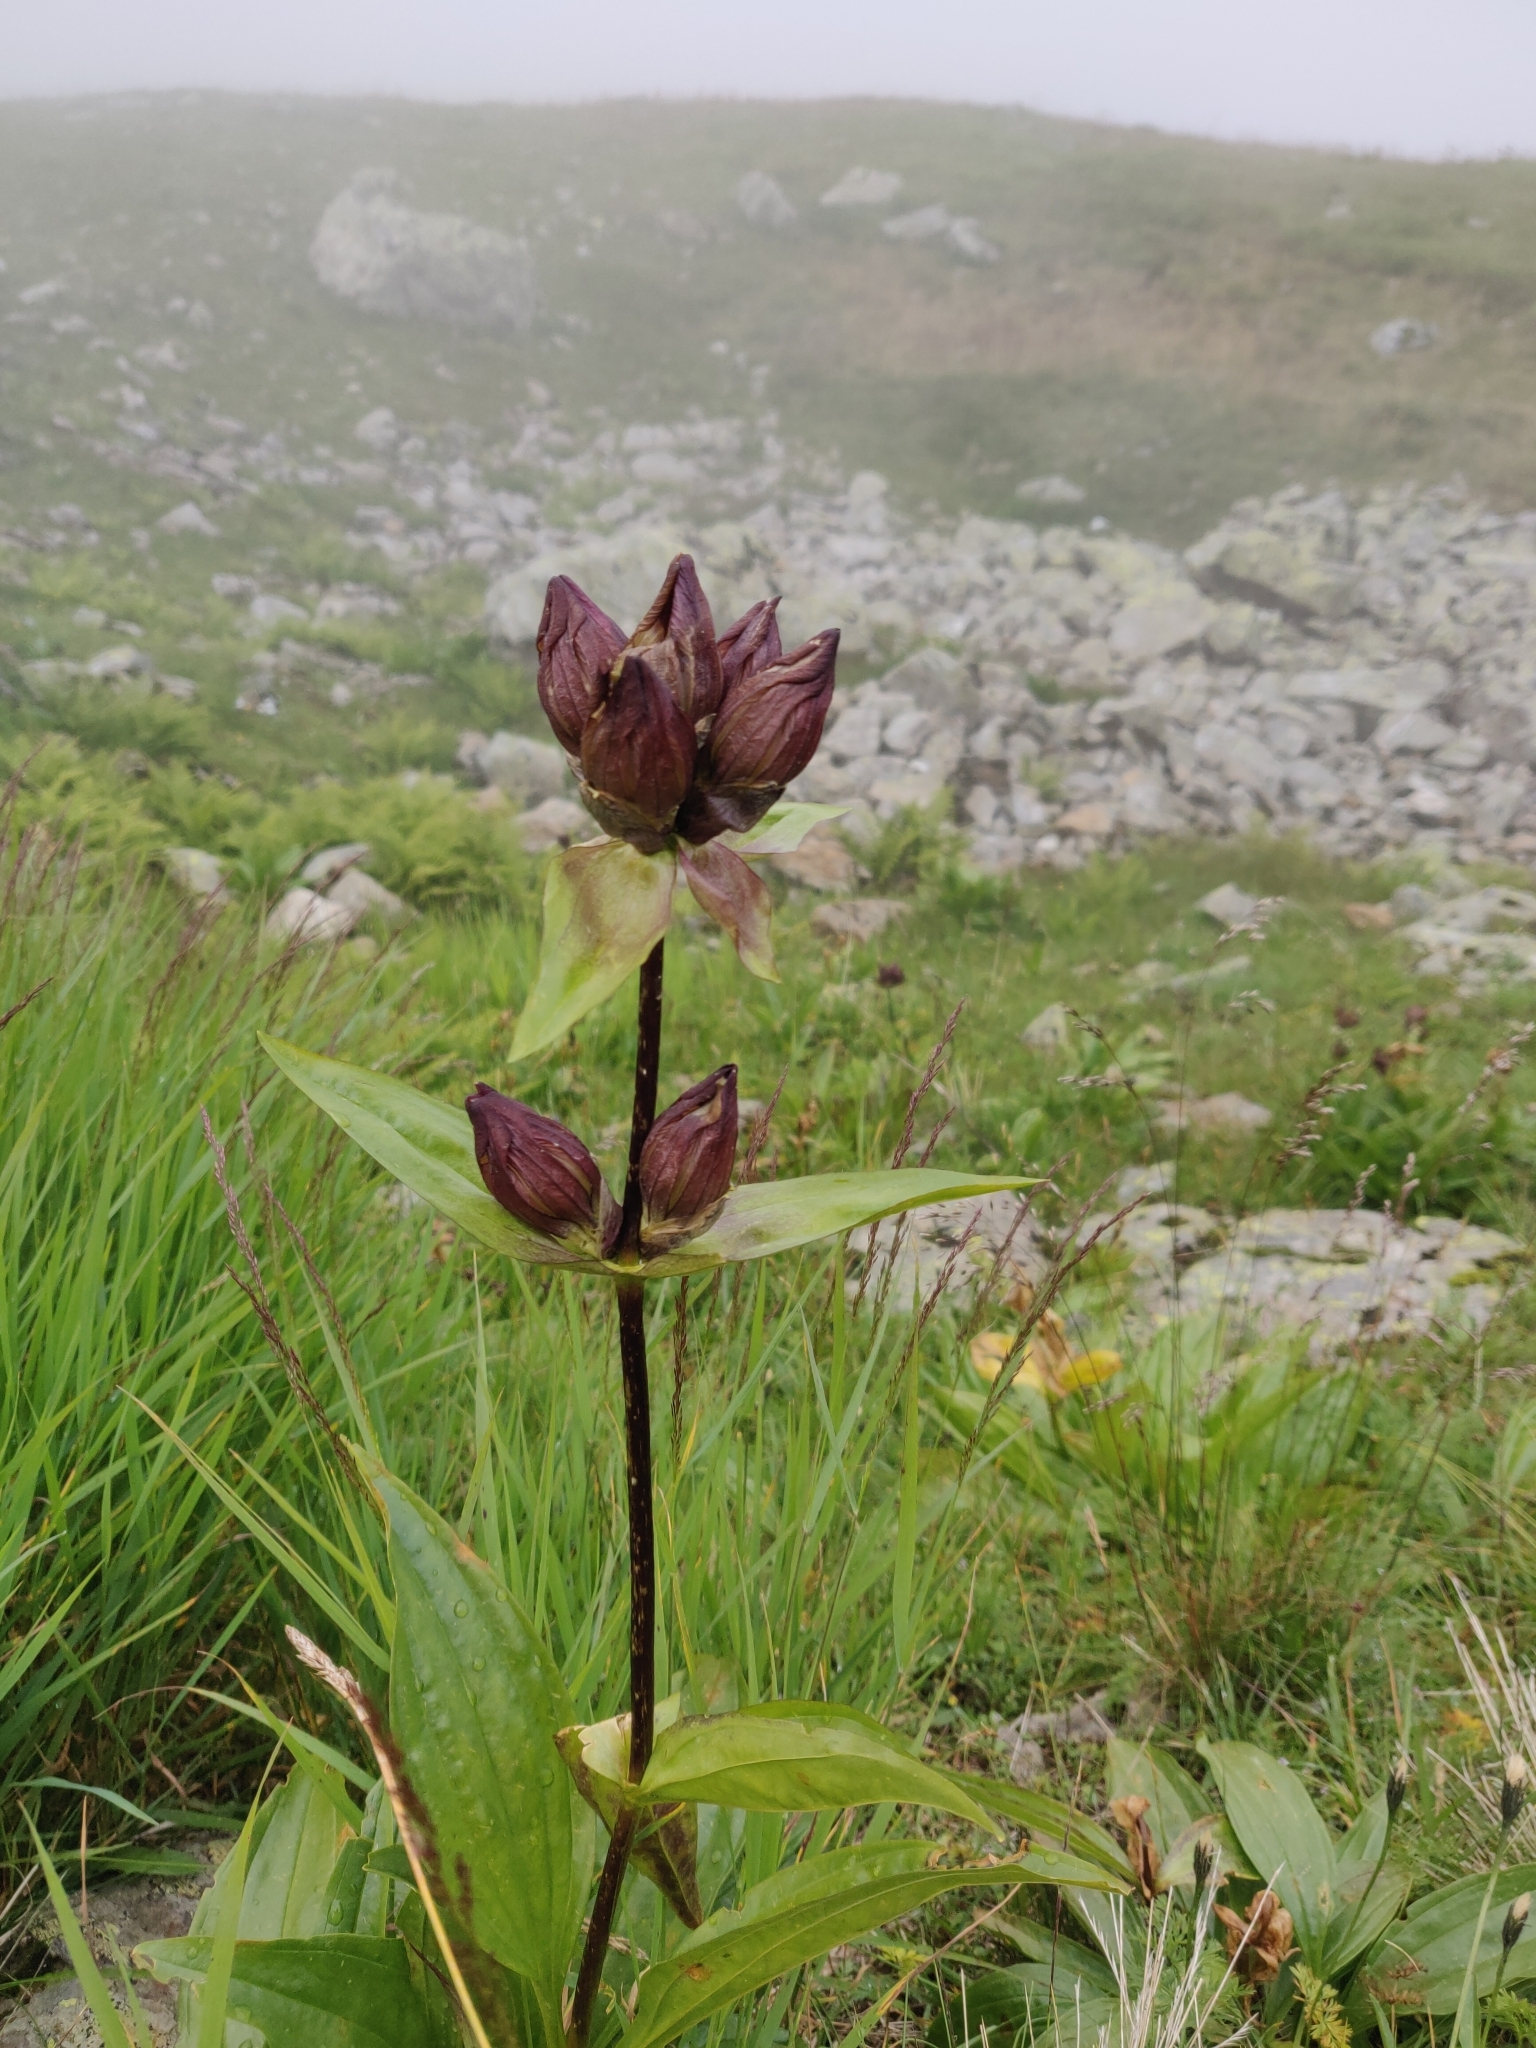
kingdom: Plantae
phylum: Tracheophyta
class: Magnoliopsida
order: Gentianales
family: Gentianaceae
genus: Gentiana
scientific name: Gentiana purpurea
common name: Purple gentian
